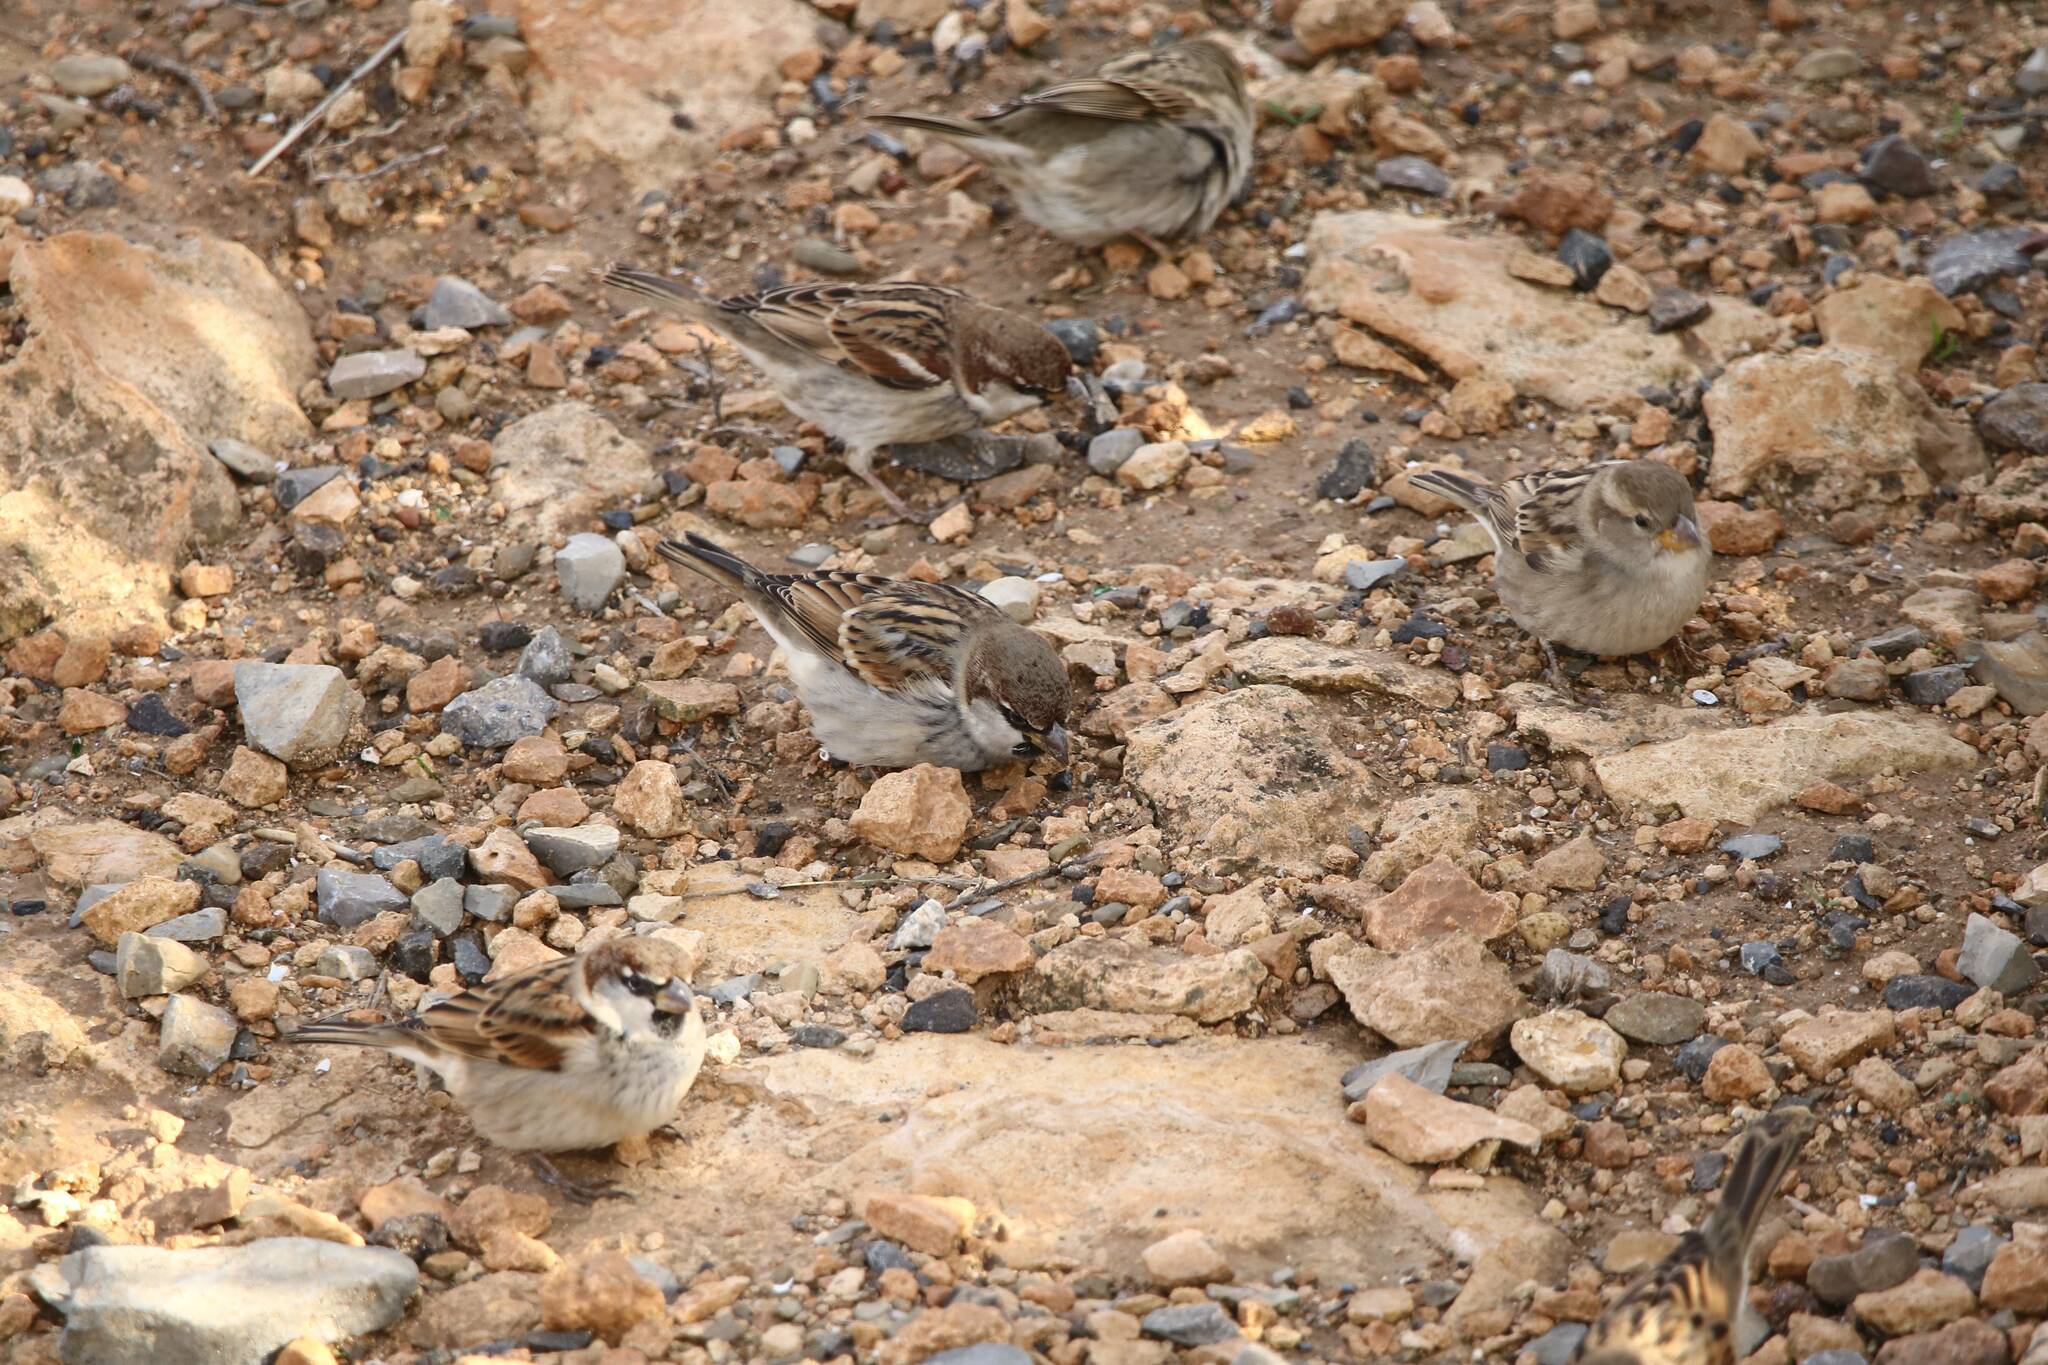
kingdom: Animalia
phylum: Chordata
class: Aves
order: Passeriformes
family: Passeridae
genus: Passer
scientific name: Passer domesticus
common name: House sparrow
